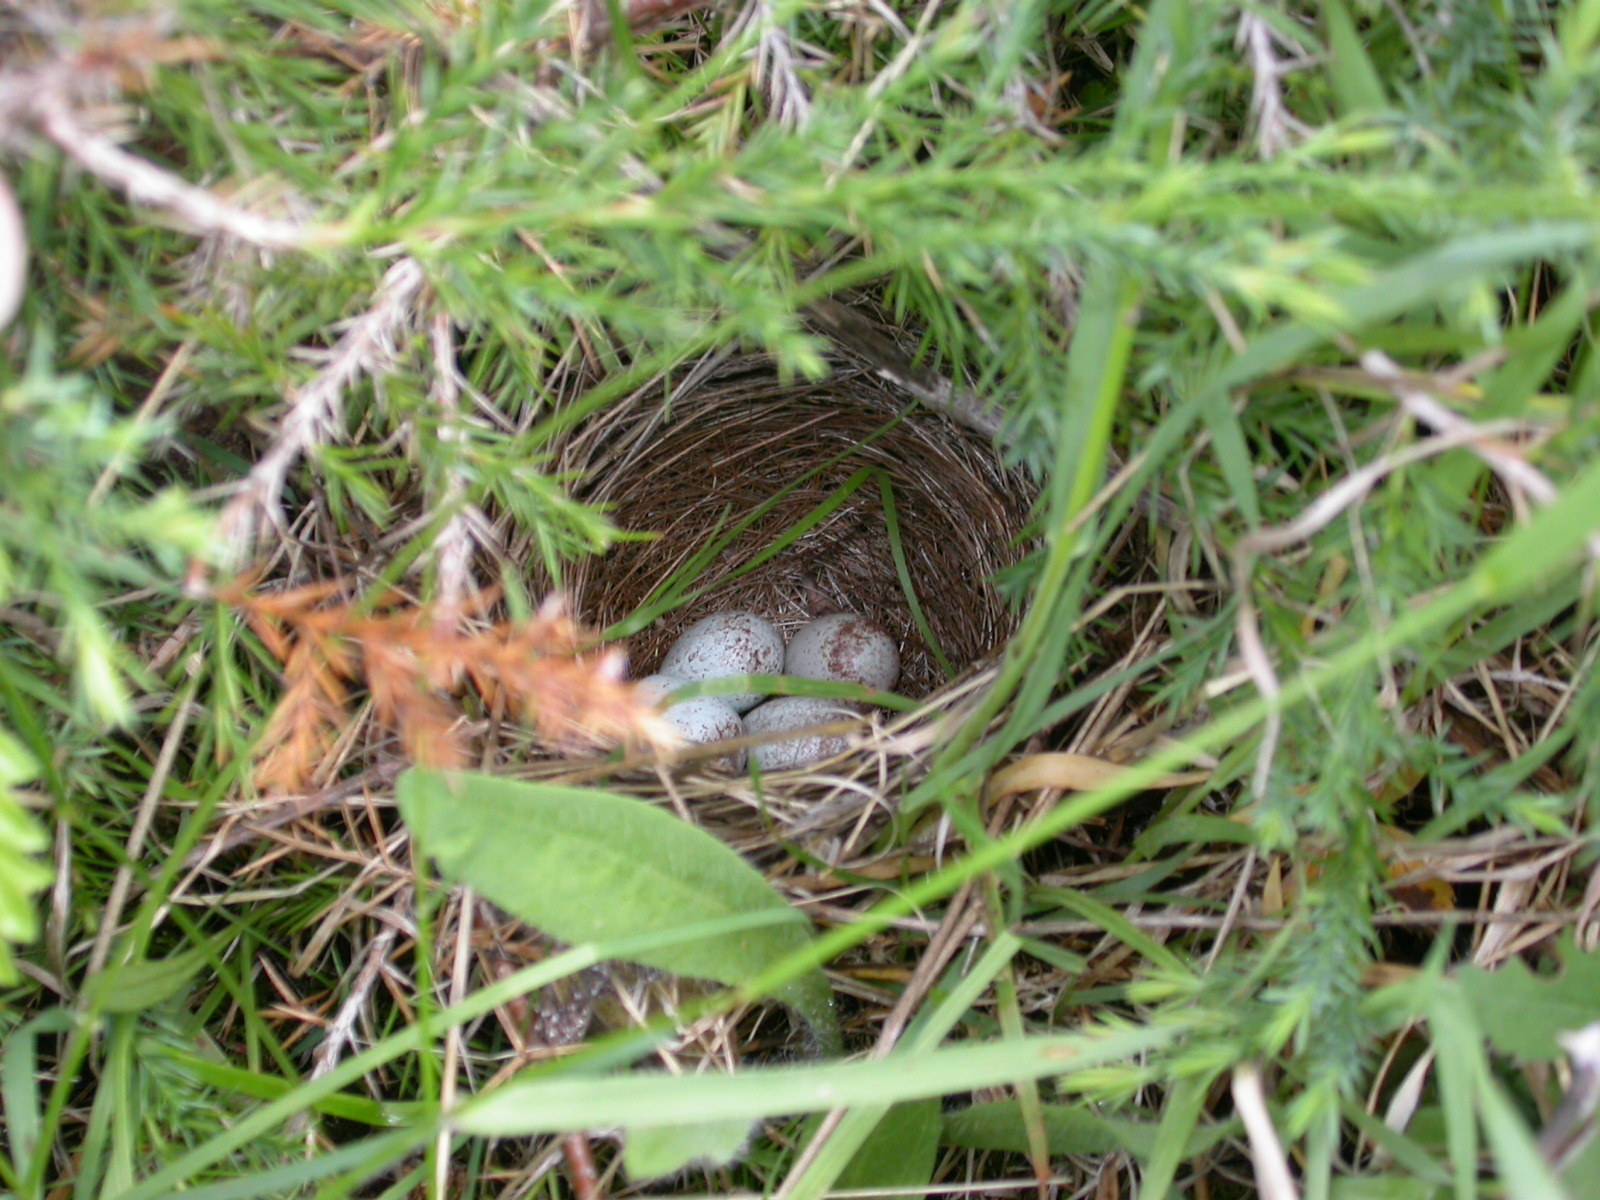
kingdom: Animalia
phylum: Chordata
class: Aves
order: Passeriformes
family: Passerellidae
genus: Spizella
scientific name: Spizella pusilla
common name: Field sparrow
